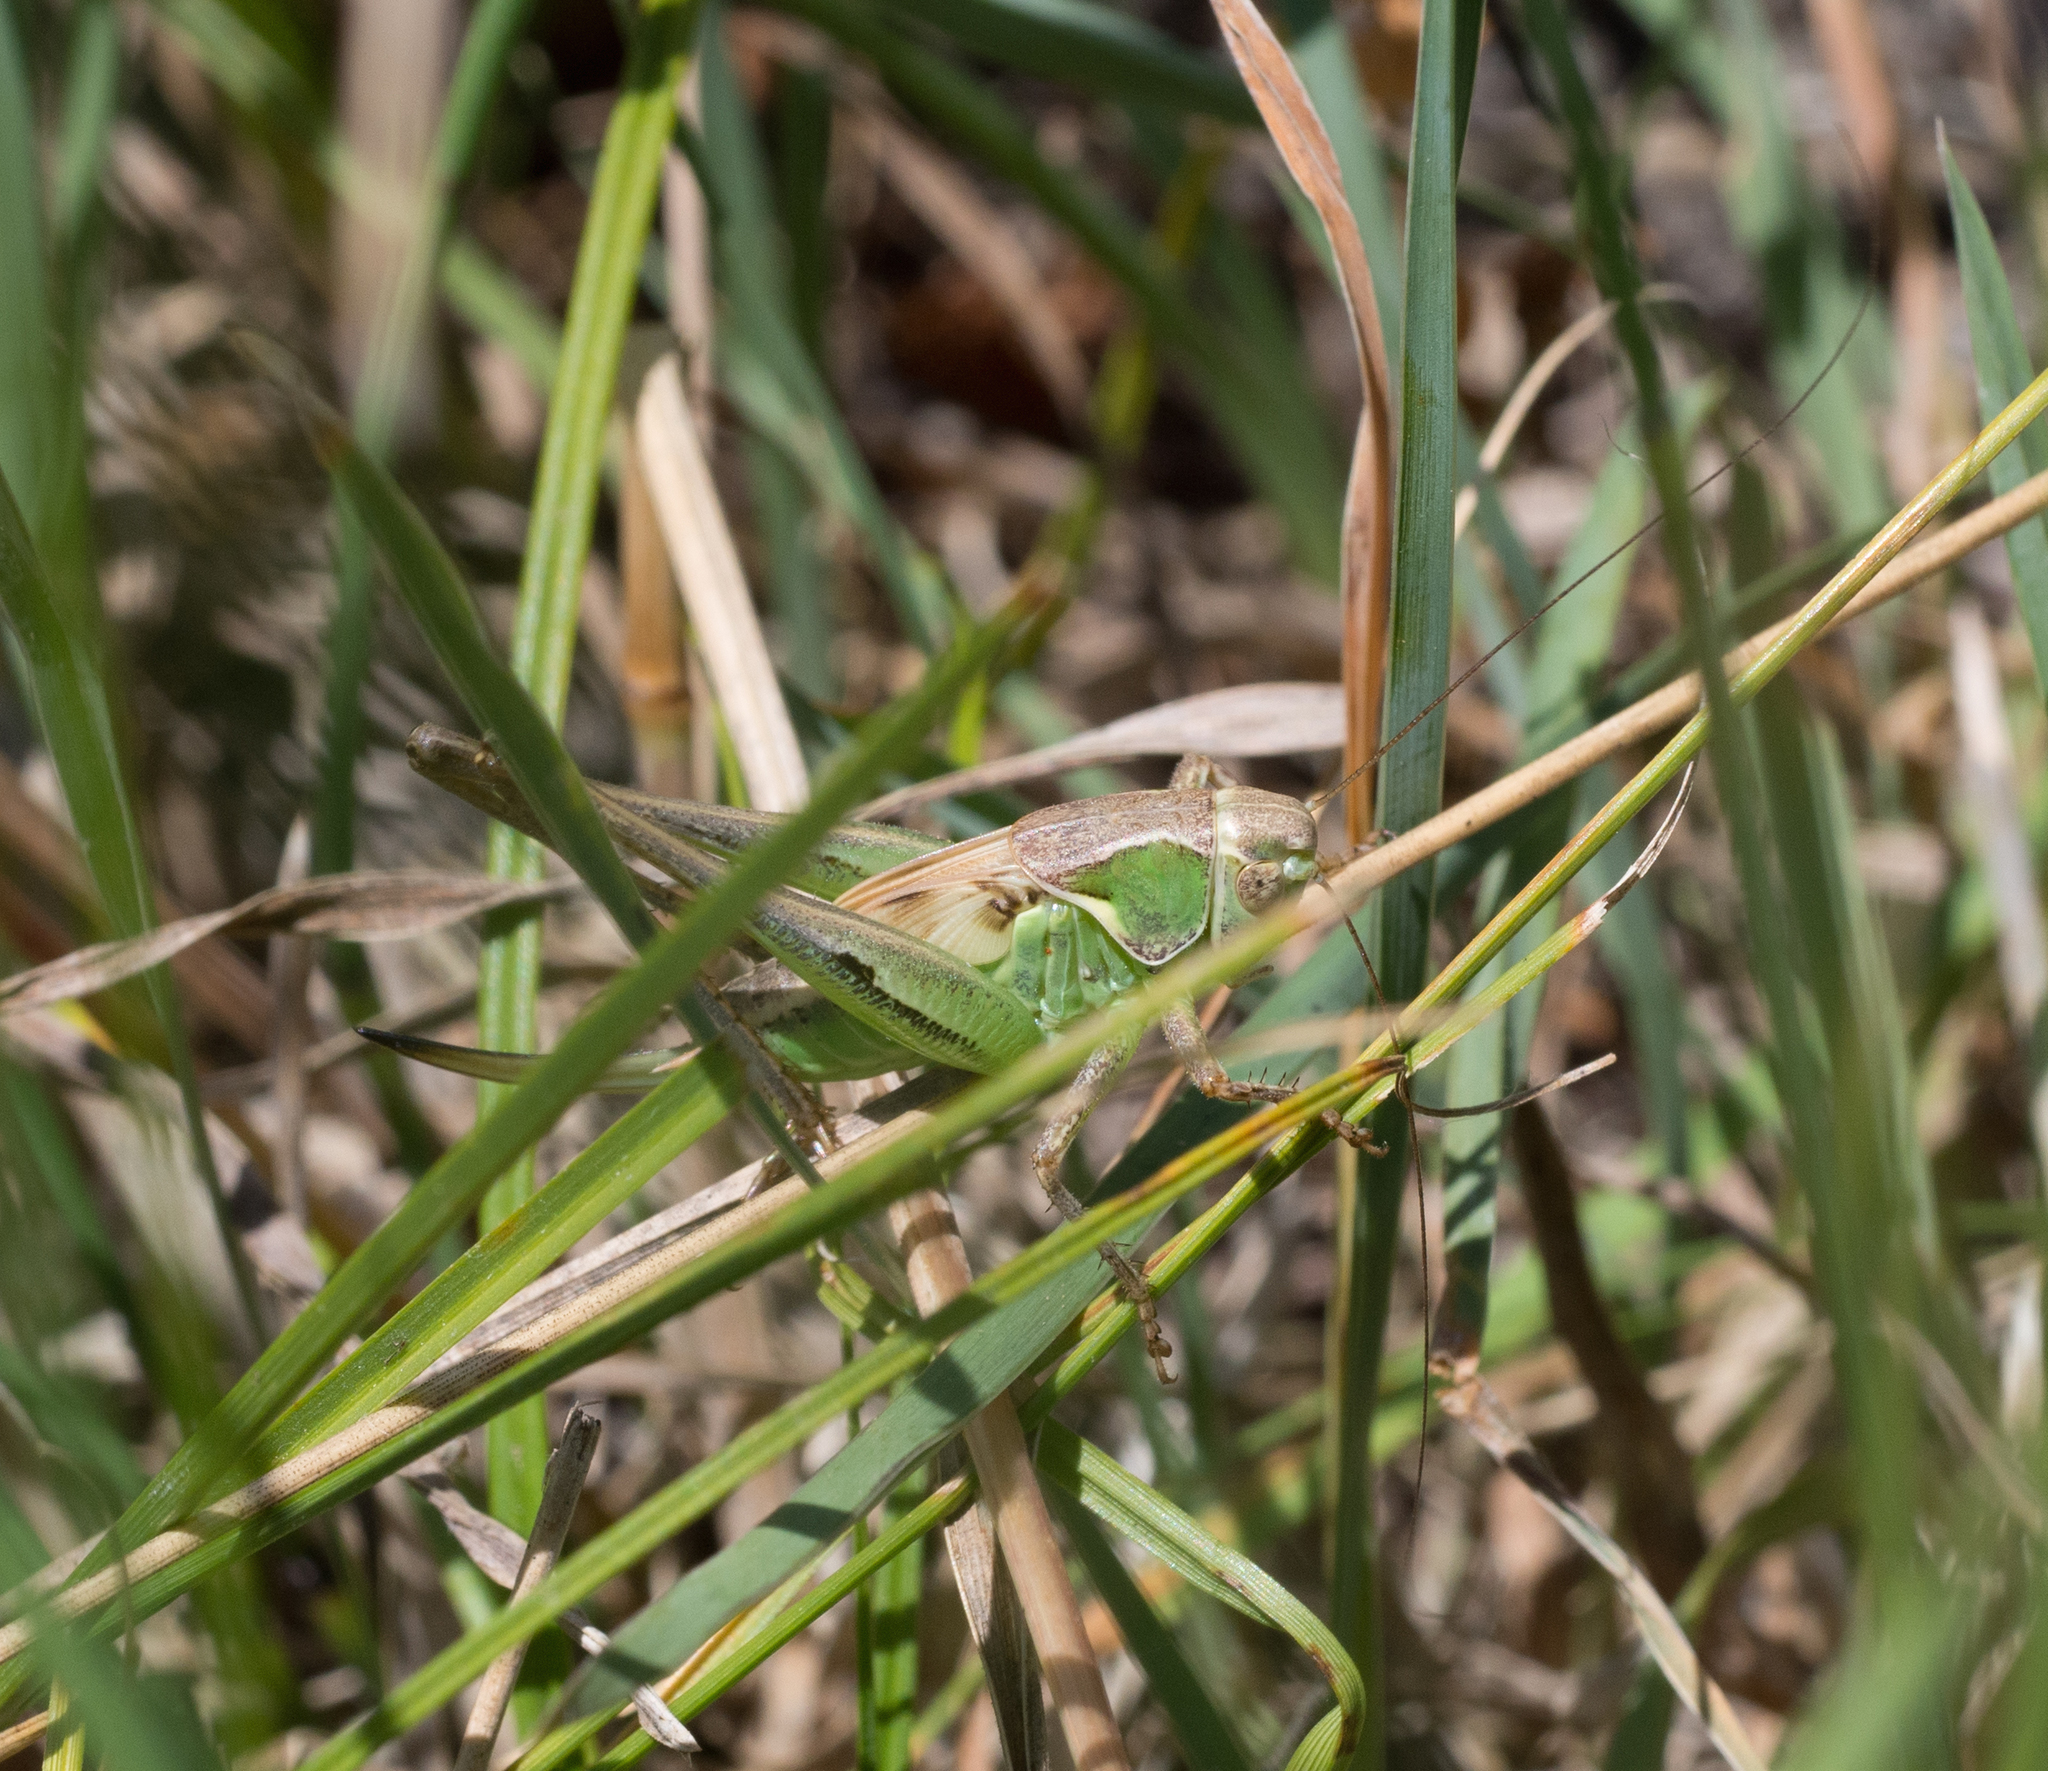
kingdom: Animalia
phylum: Arthropoda
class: Insecta
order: Orthoptera
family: Tettigoniidae
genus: Platycleis
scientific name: Platycleis affinis
